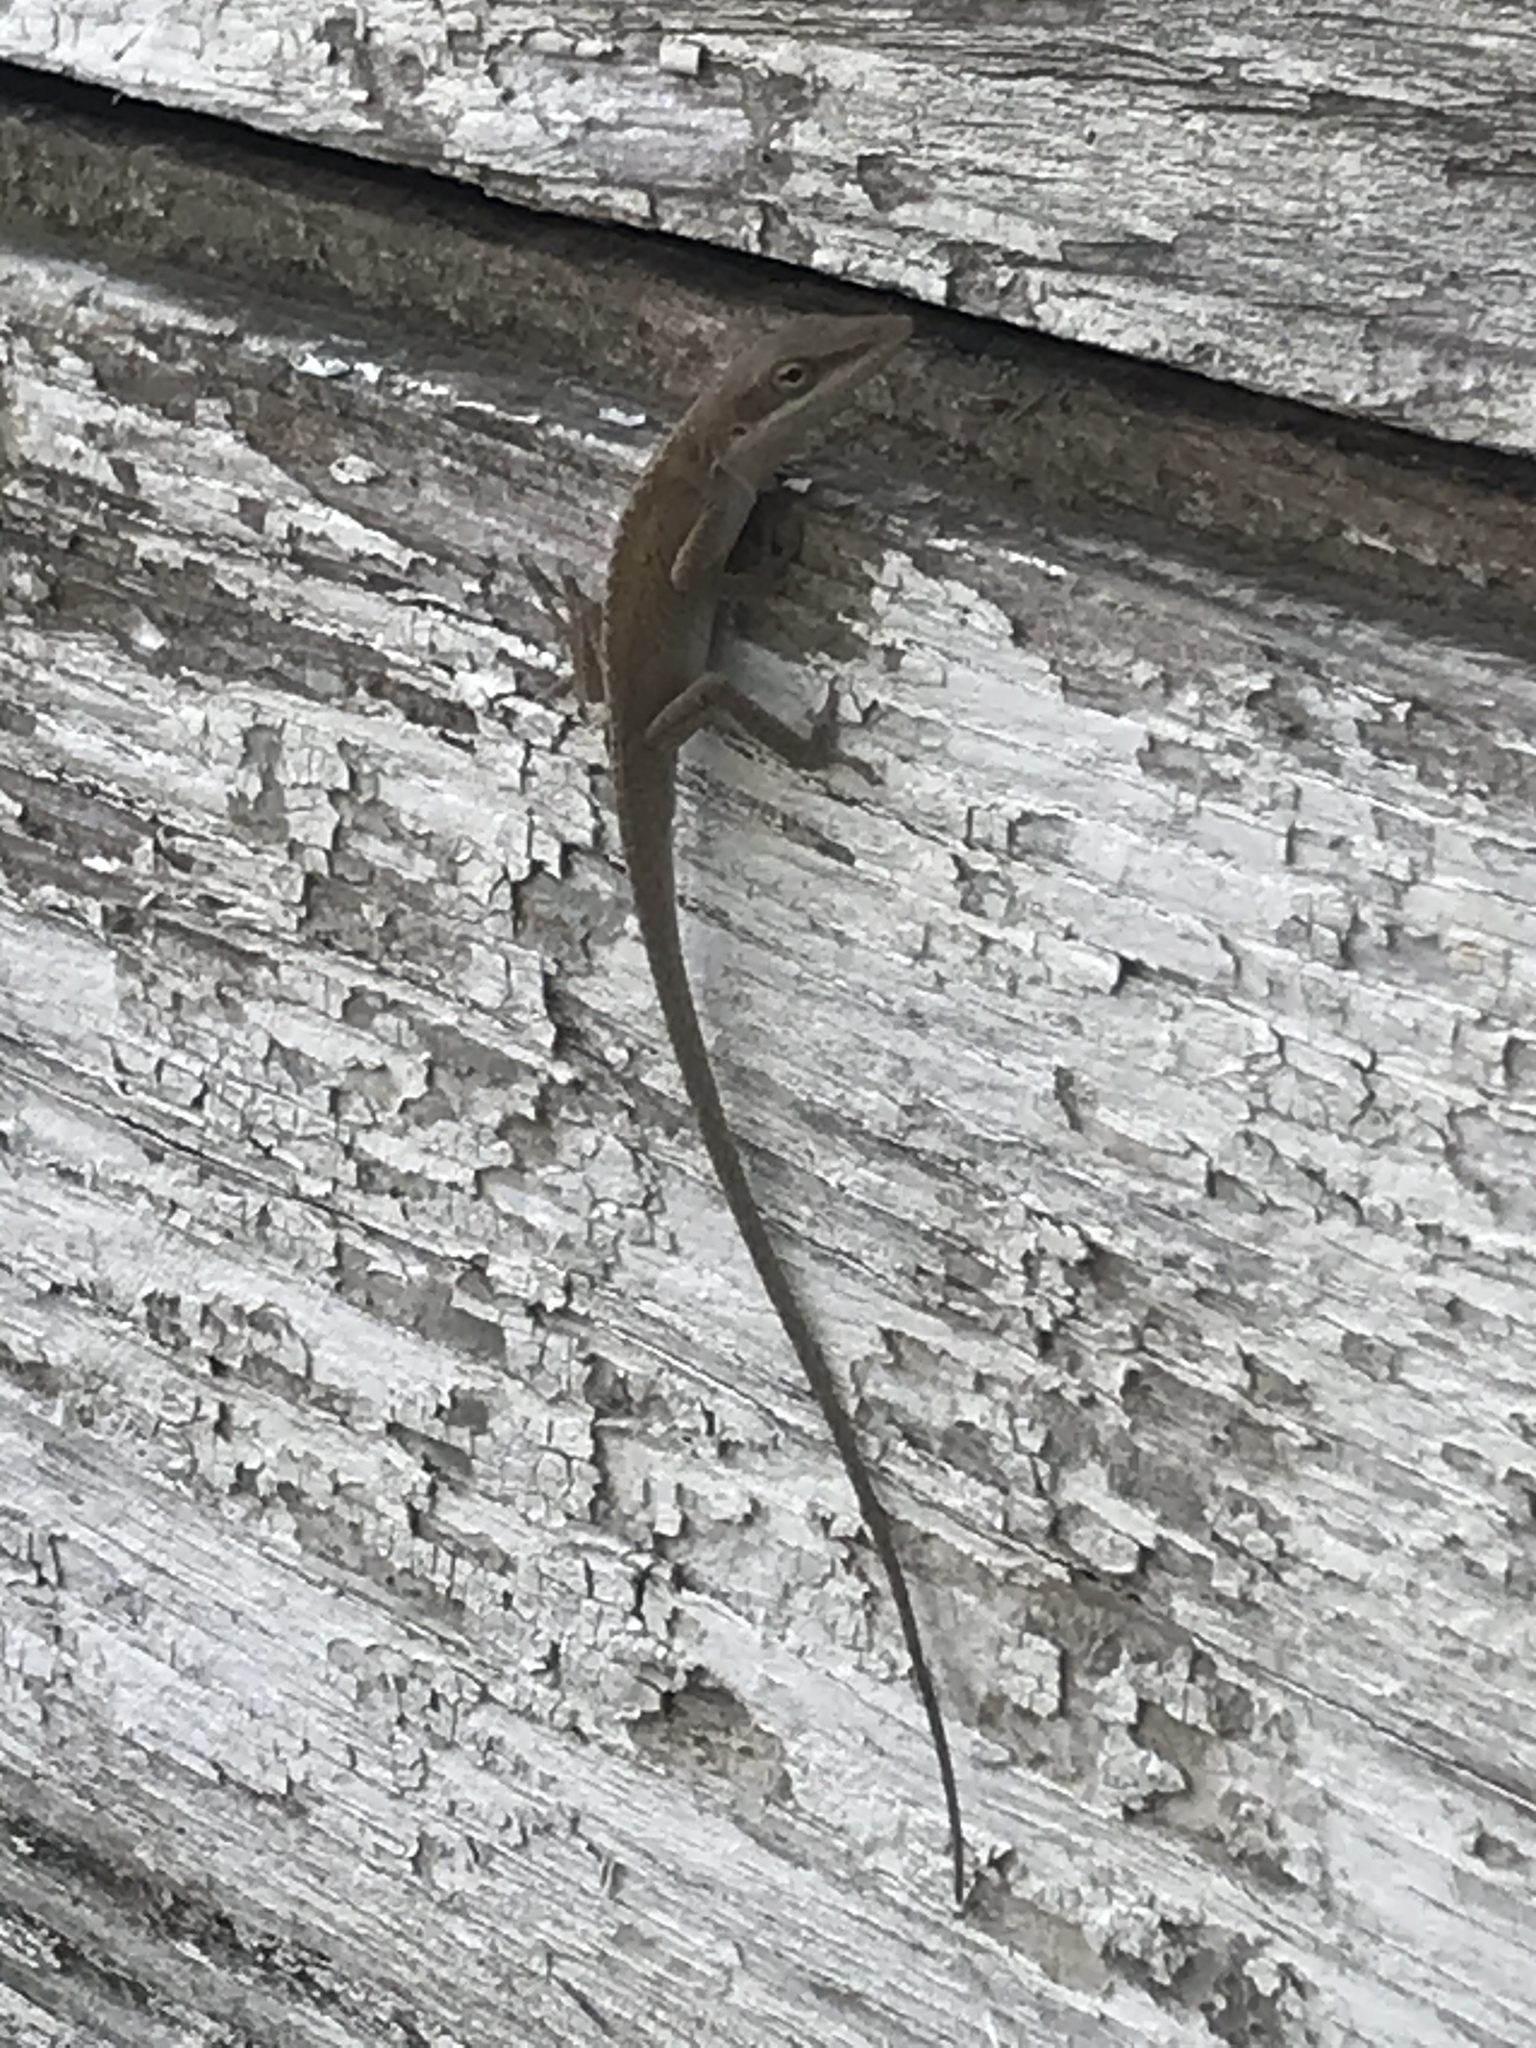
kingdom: Animalia
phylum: Chordata
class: Squamata
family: Dactyloidae
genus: Anolis
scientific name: Anolis carolinensis
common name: Green anole
